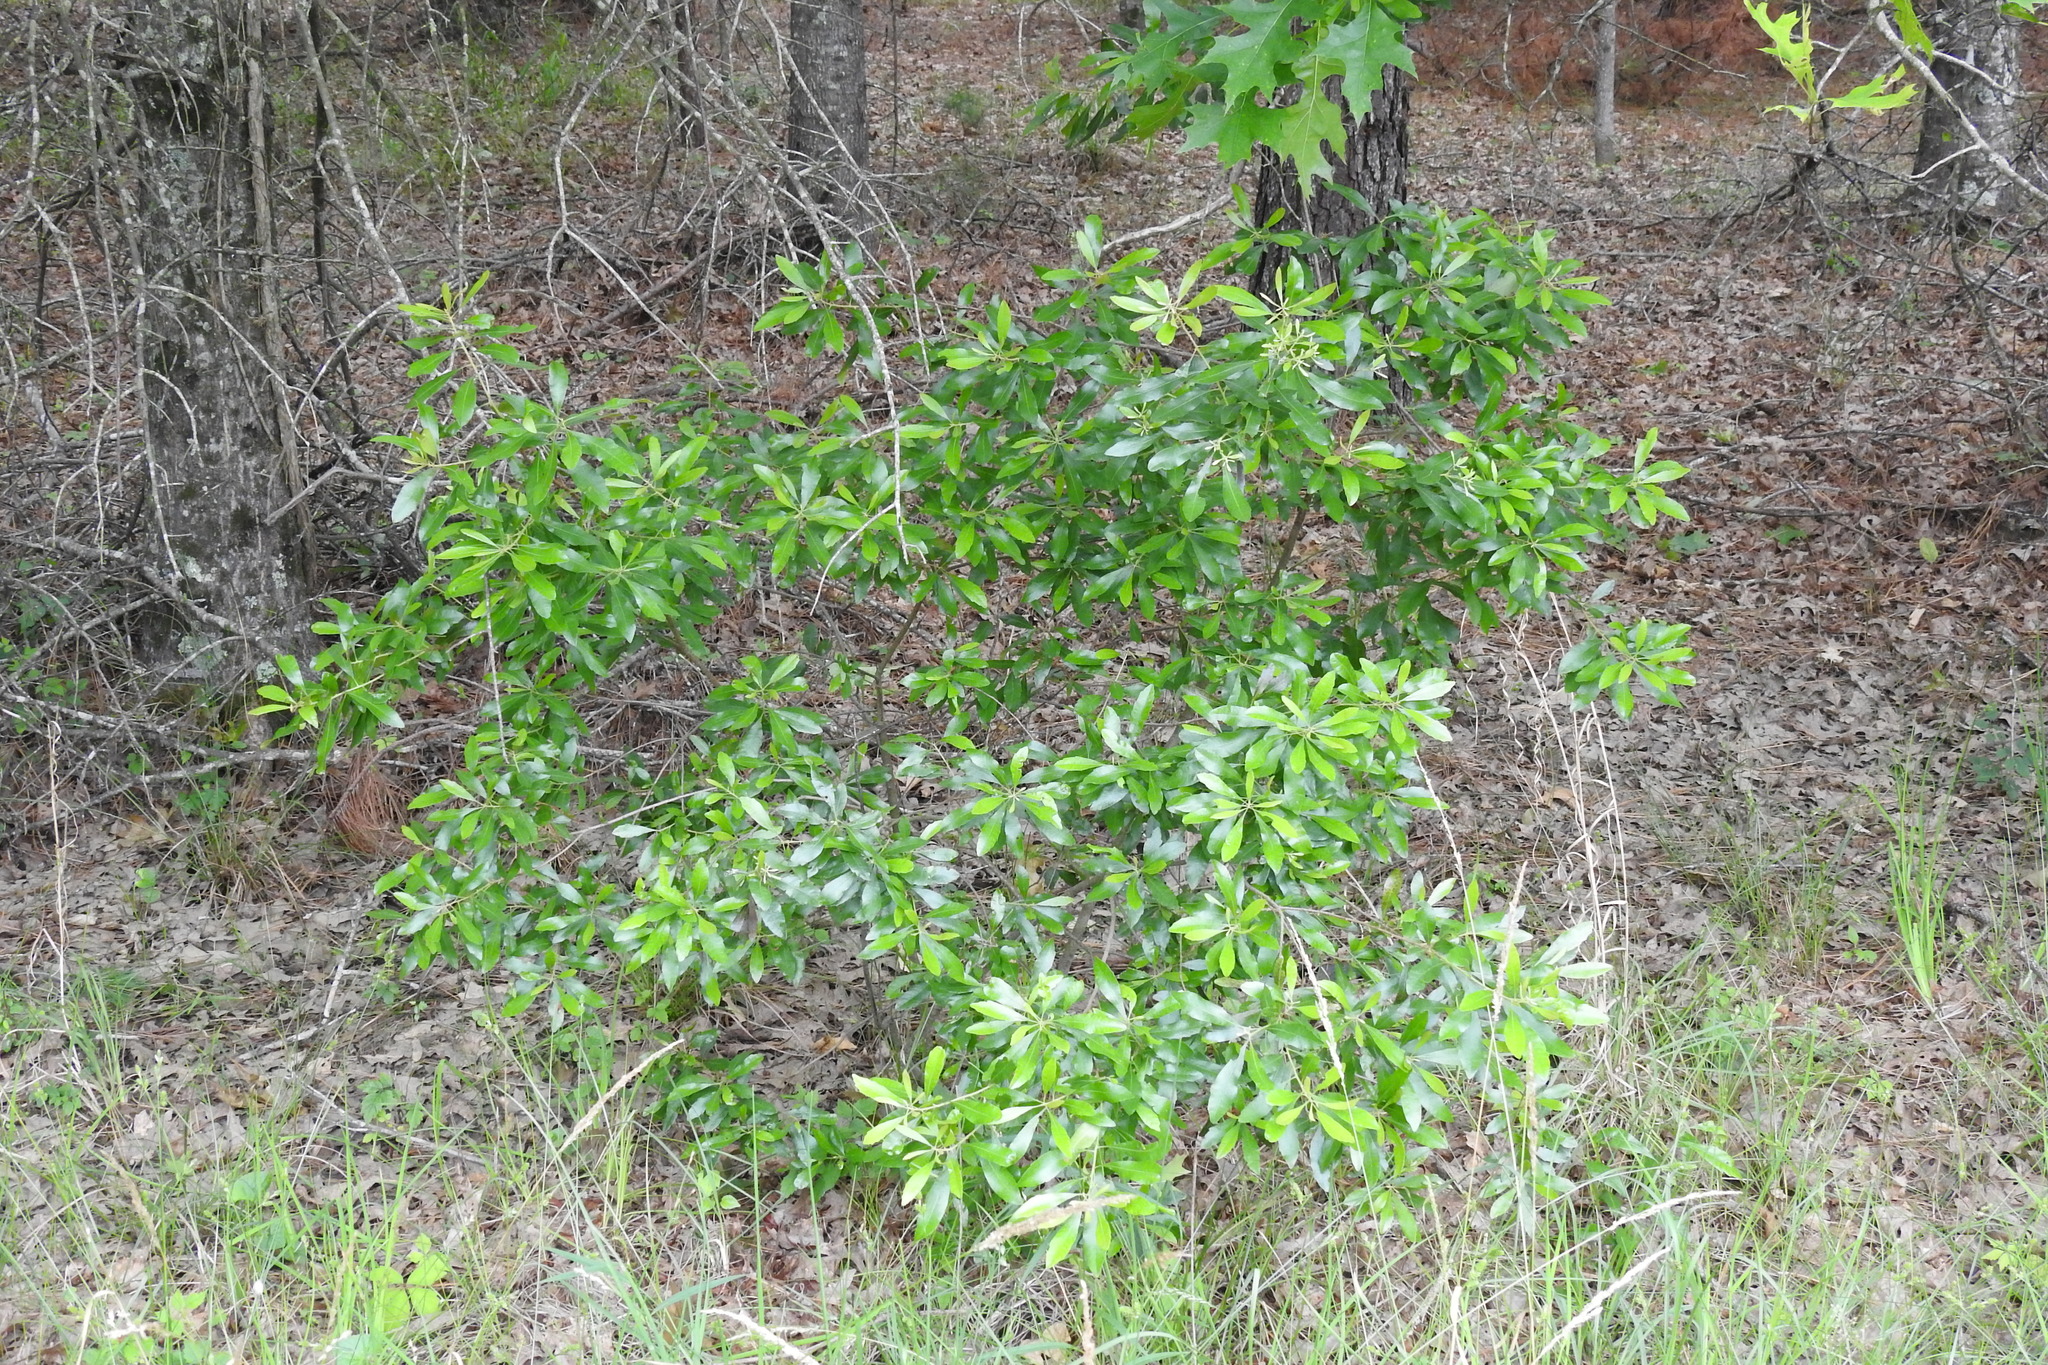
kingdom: Plantae
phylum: Tracheophyta
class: Magnoliopsida
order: Fagales
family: Myricaceae
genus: Morella
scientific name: Morella cerifera
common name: Wax myrtle
